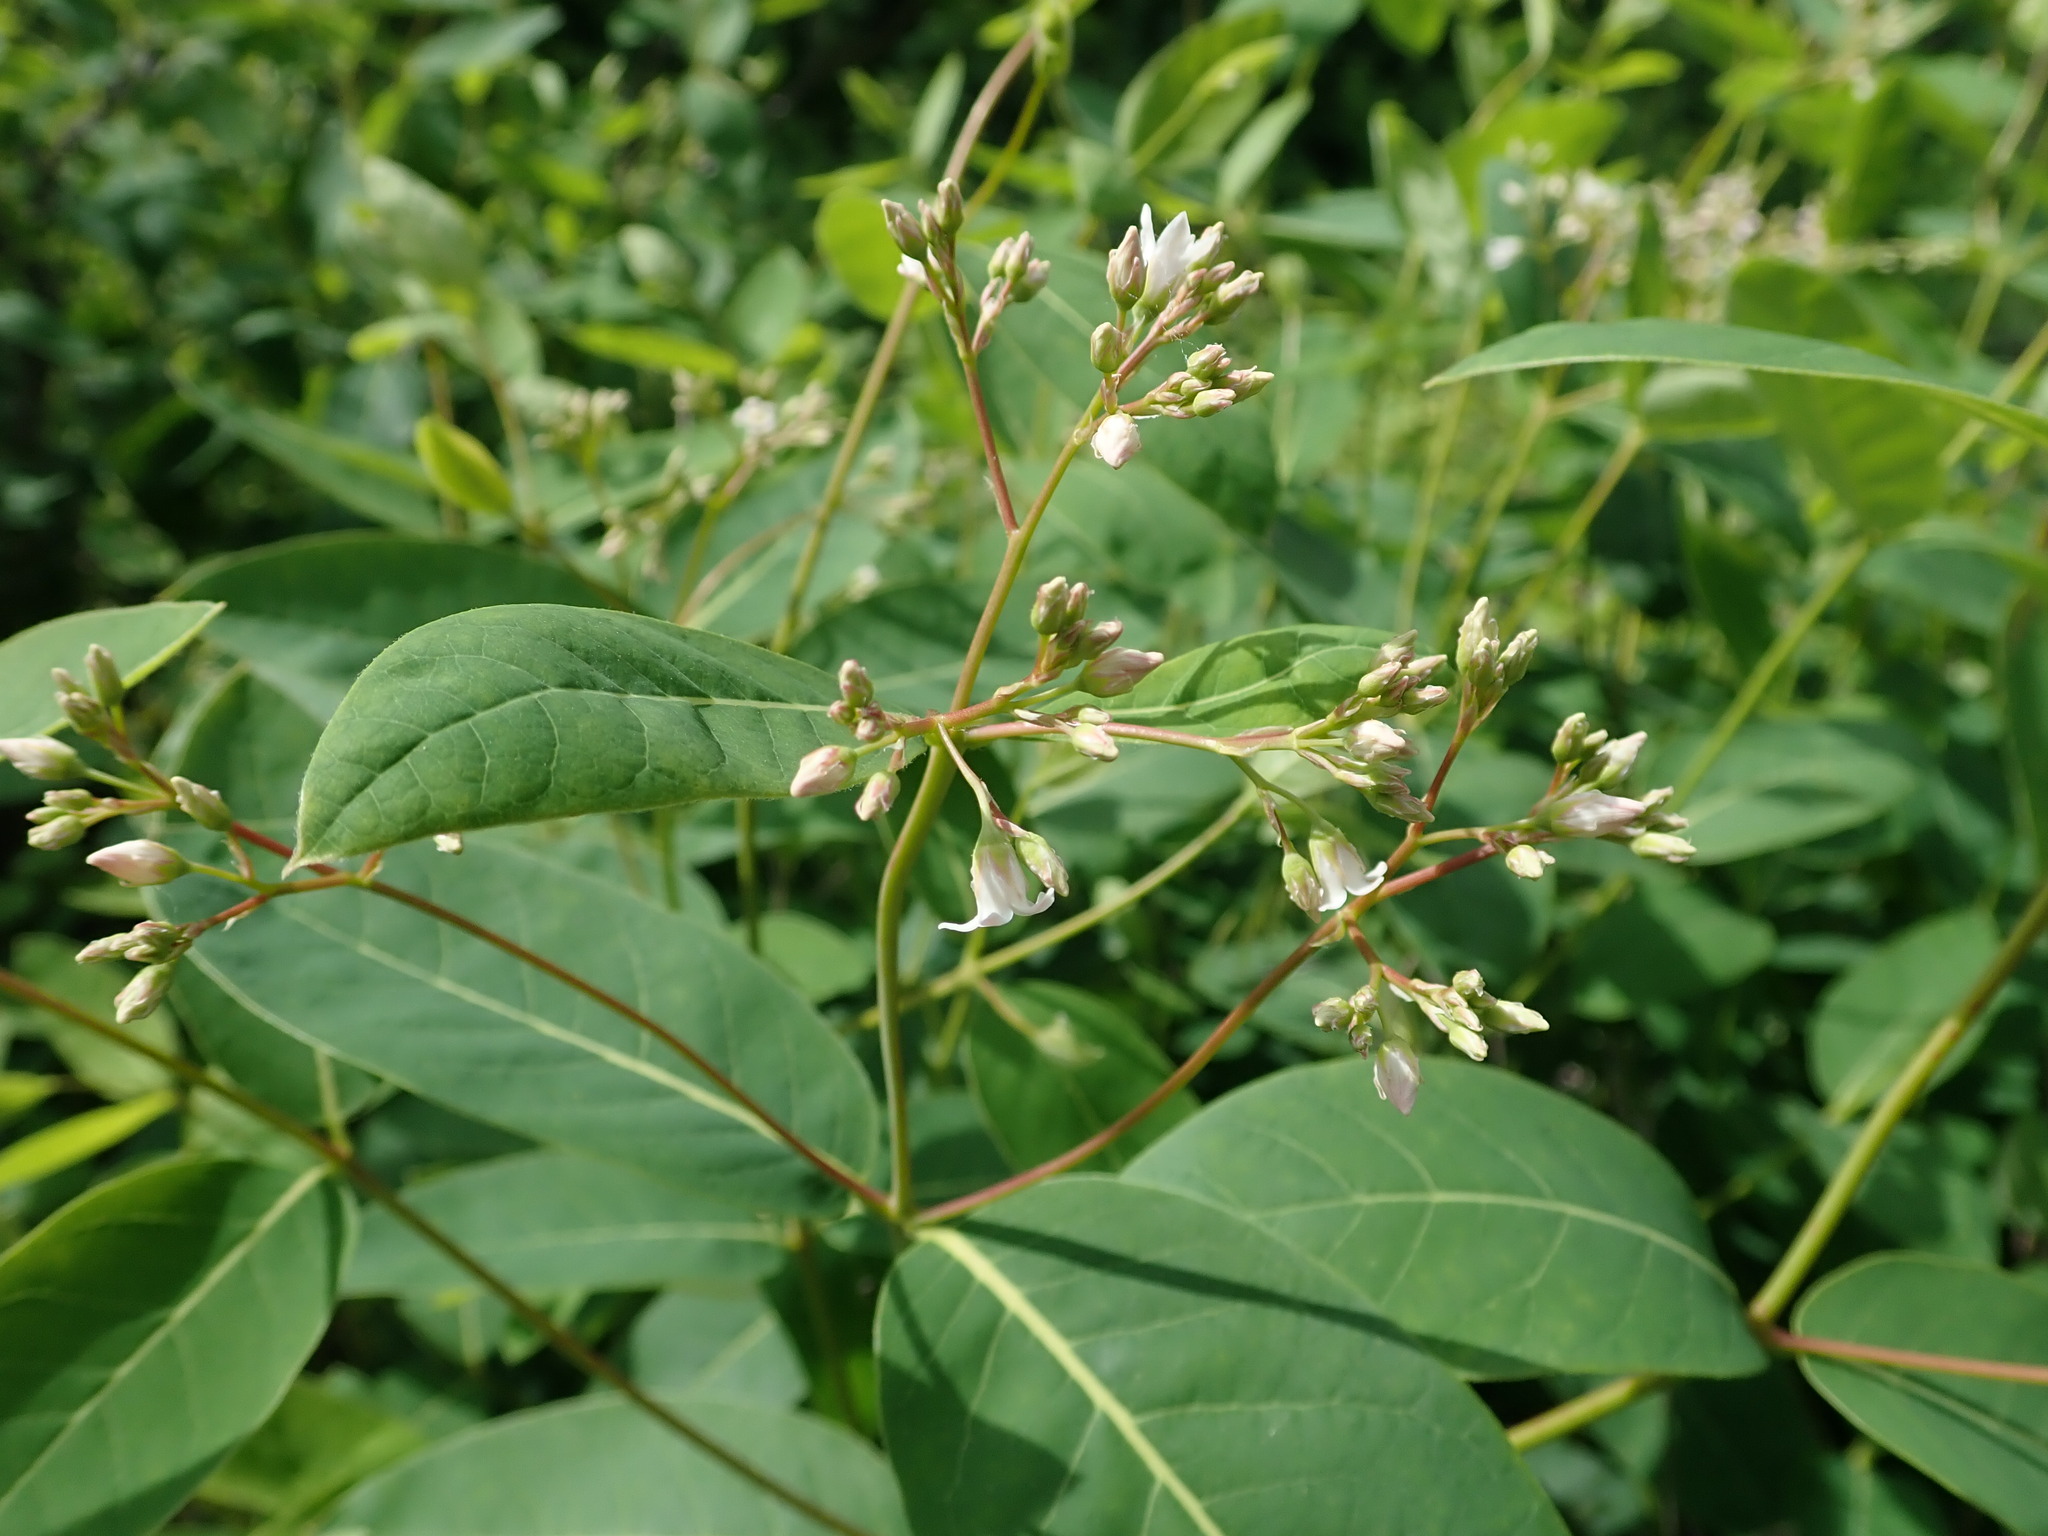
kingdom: Plantae
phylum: Tracheophyta
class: Magnoliopsida
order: Gentianales
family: Apocynaceae
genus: Apocynum
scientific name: Apocynum cannabinum
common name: Hemp dogbane
